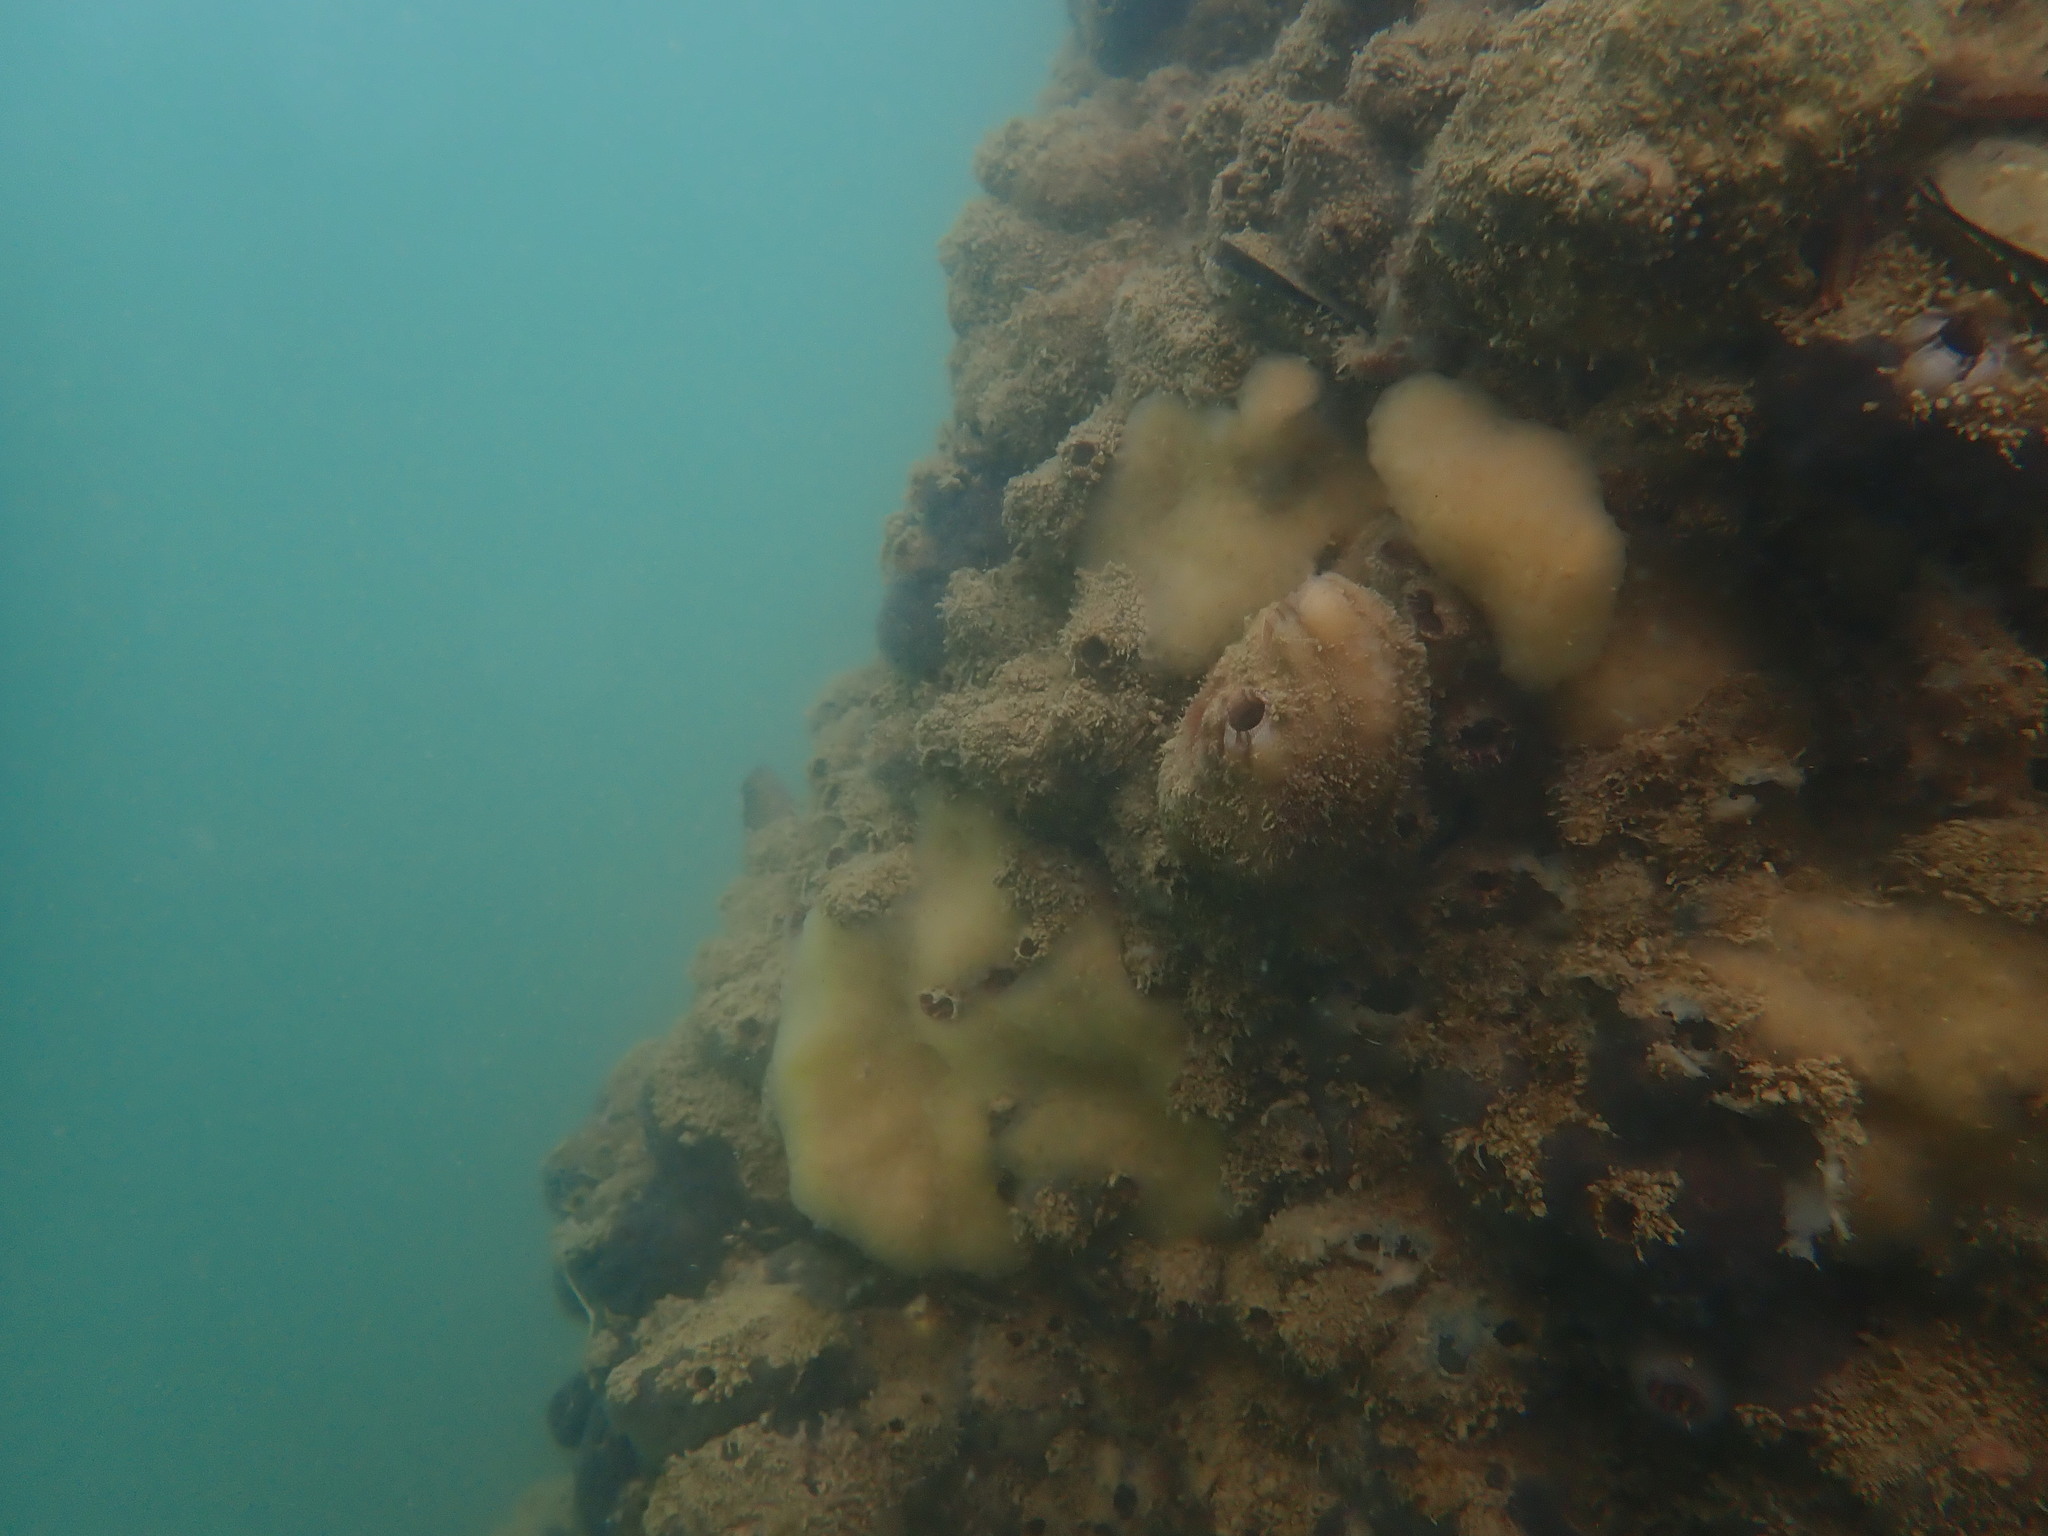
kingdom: Animalia
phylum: Chordata
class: Ascidiacea
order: Stolidobranchia
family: Styelidae
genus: Styela
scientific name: Styela plicata
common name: Pleated tunicate
